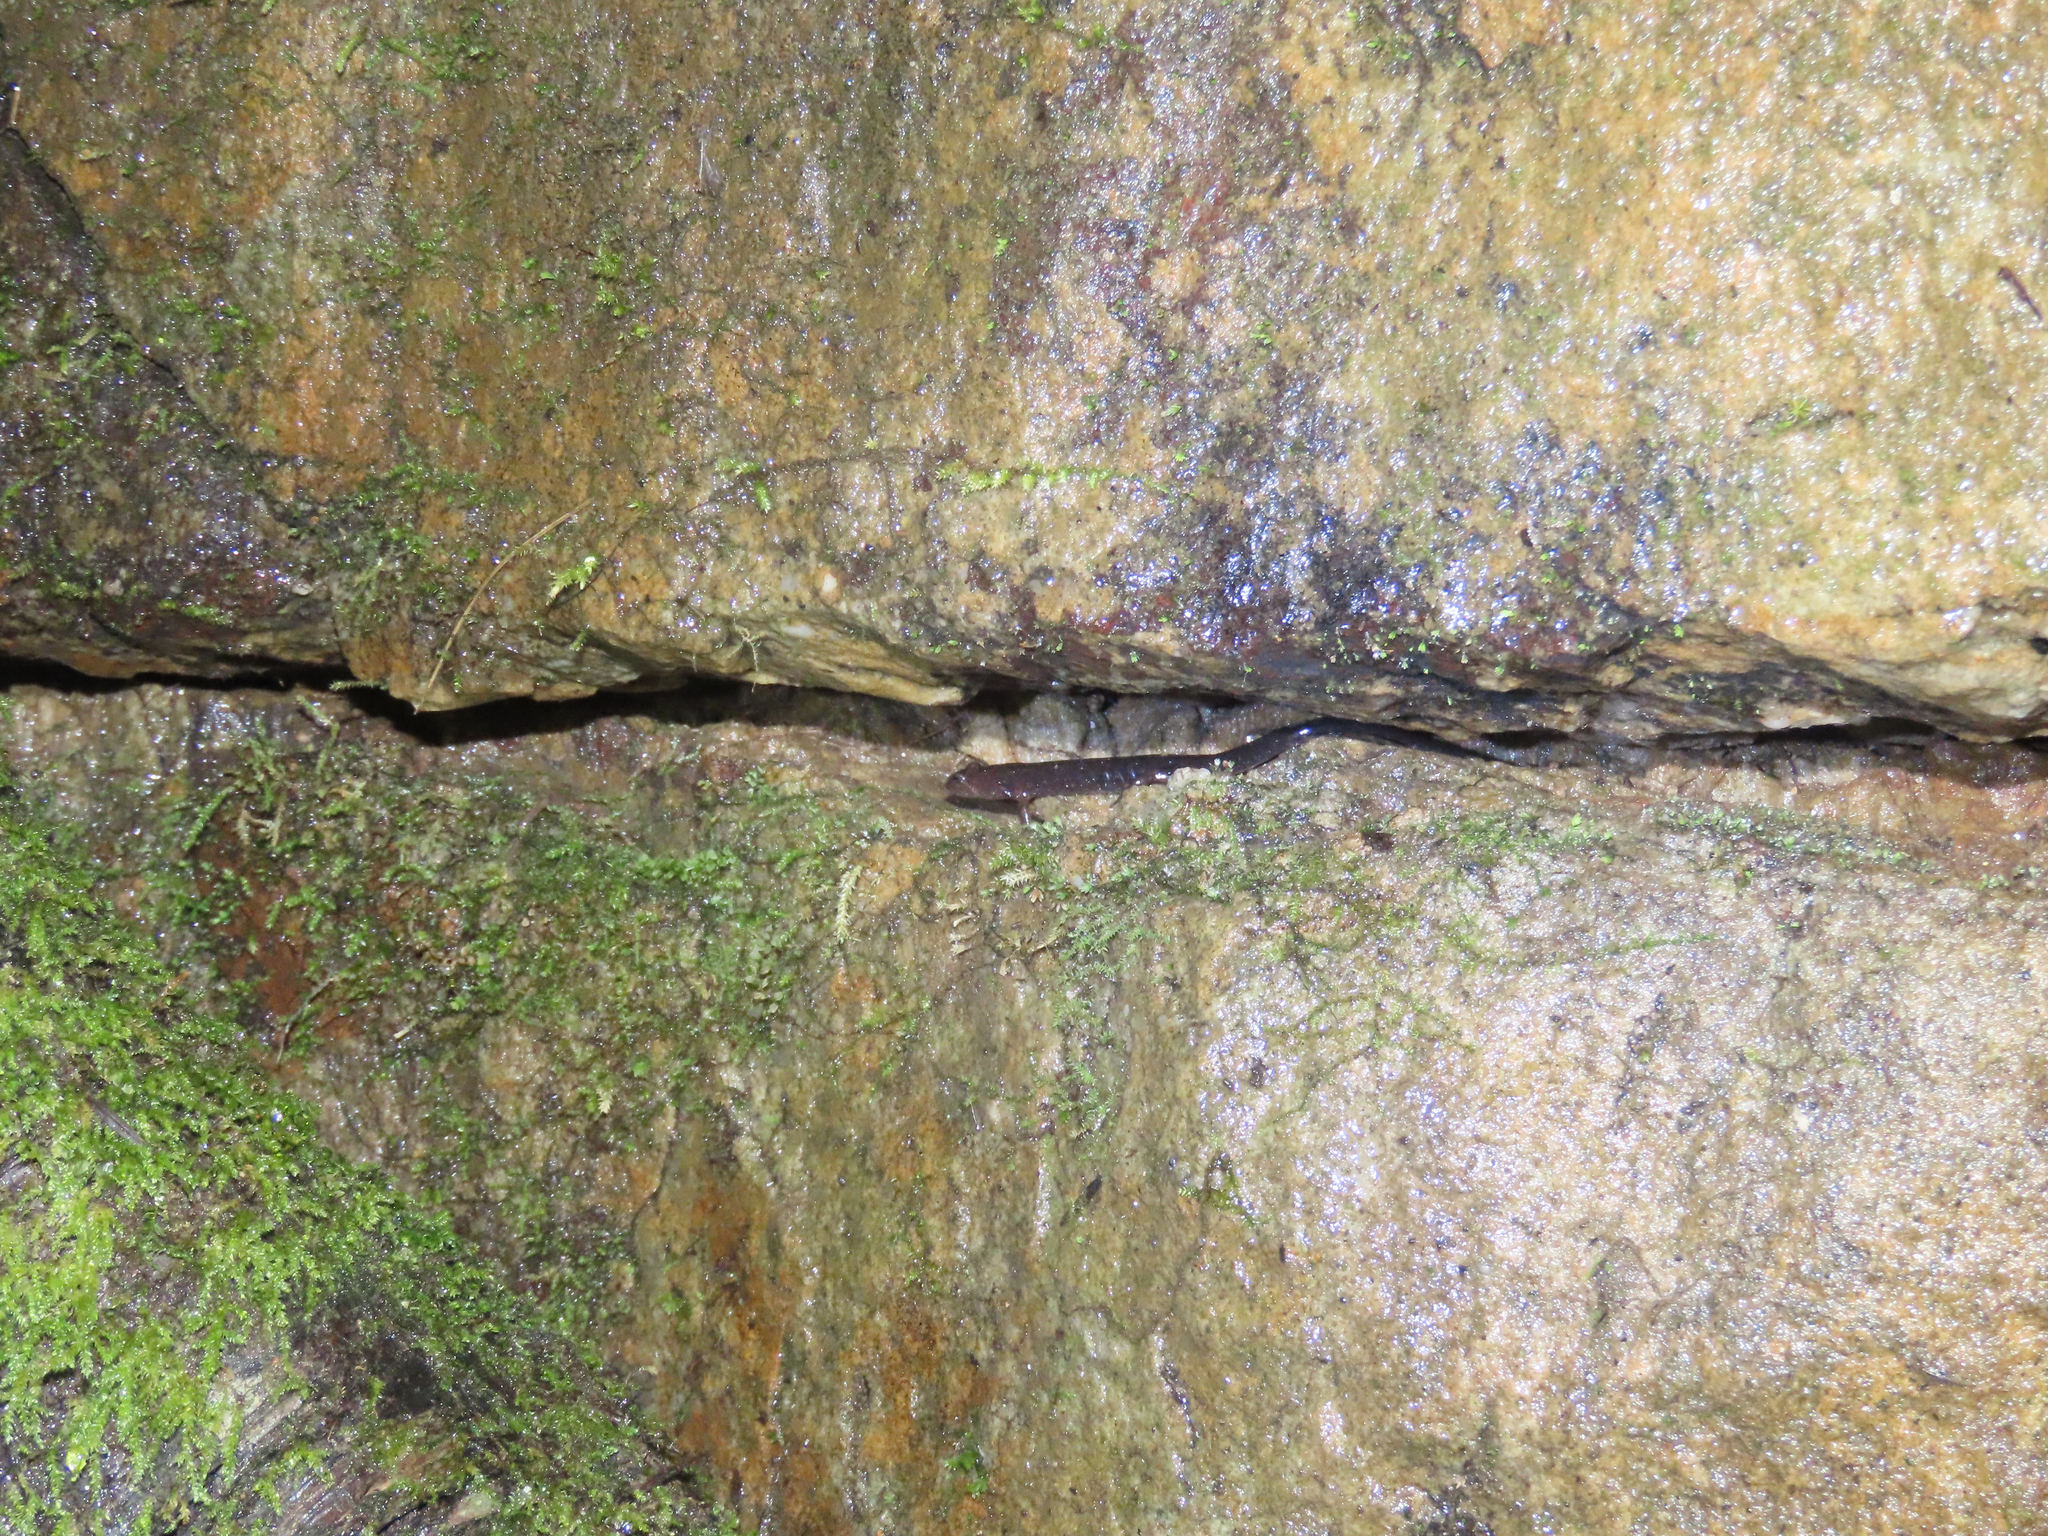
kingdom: Animalia
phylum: Chordata
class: Amphibia
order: Caudata
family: Plethodontidae
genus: Desmognathus
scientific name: Desmognathus ochrophaeus
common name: Allegheny mountain dusky salamander
